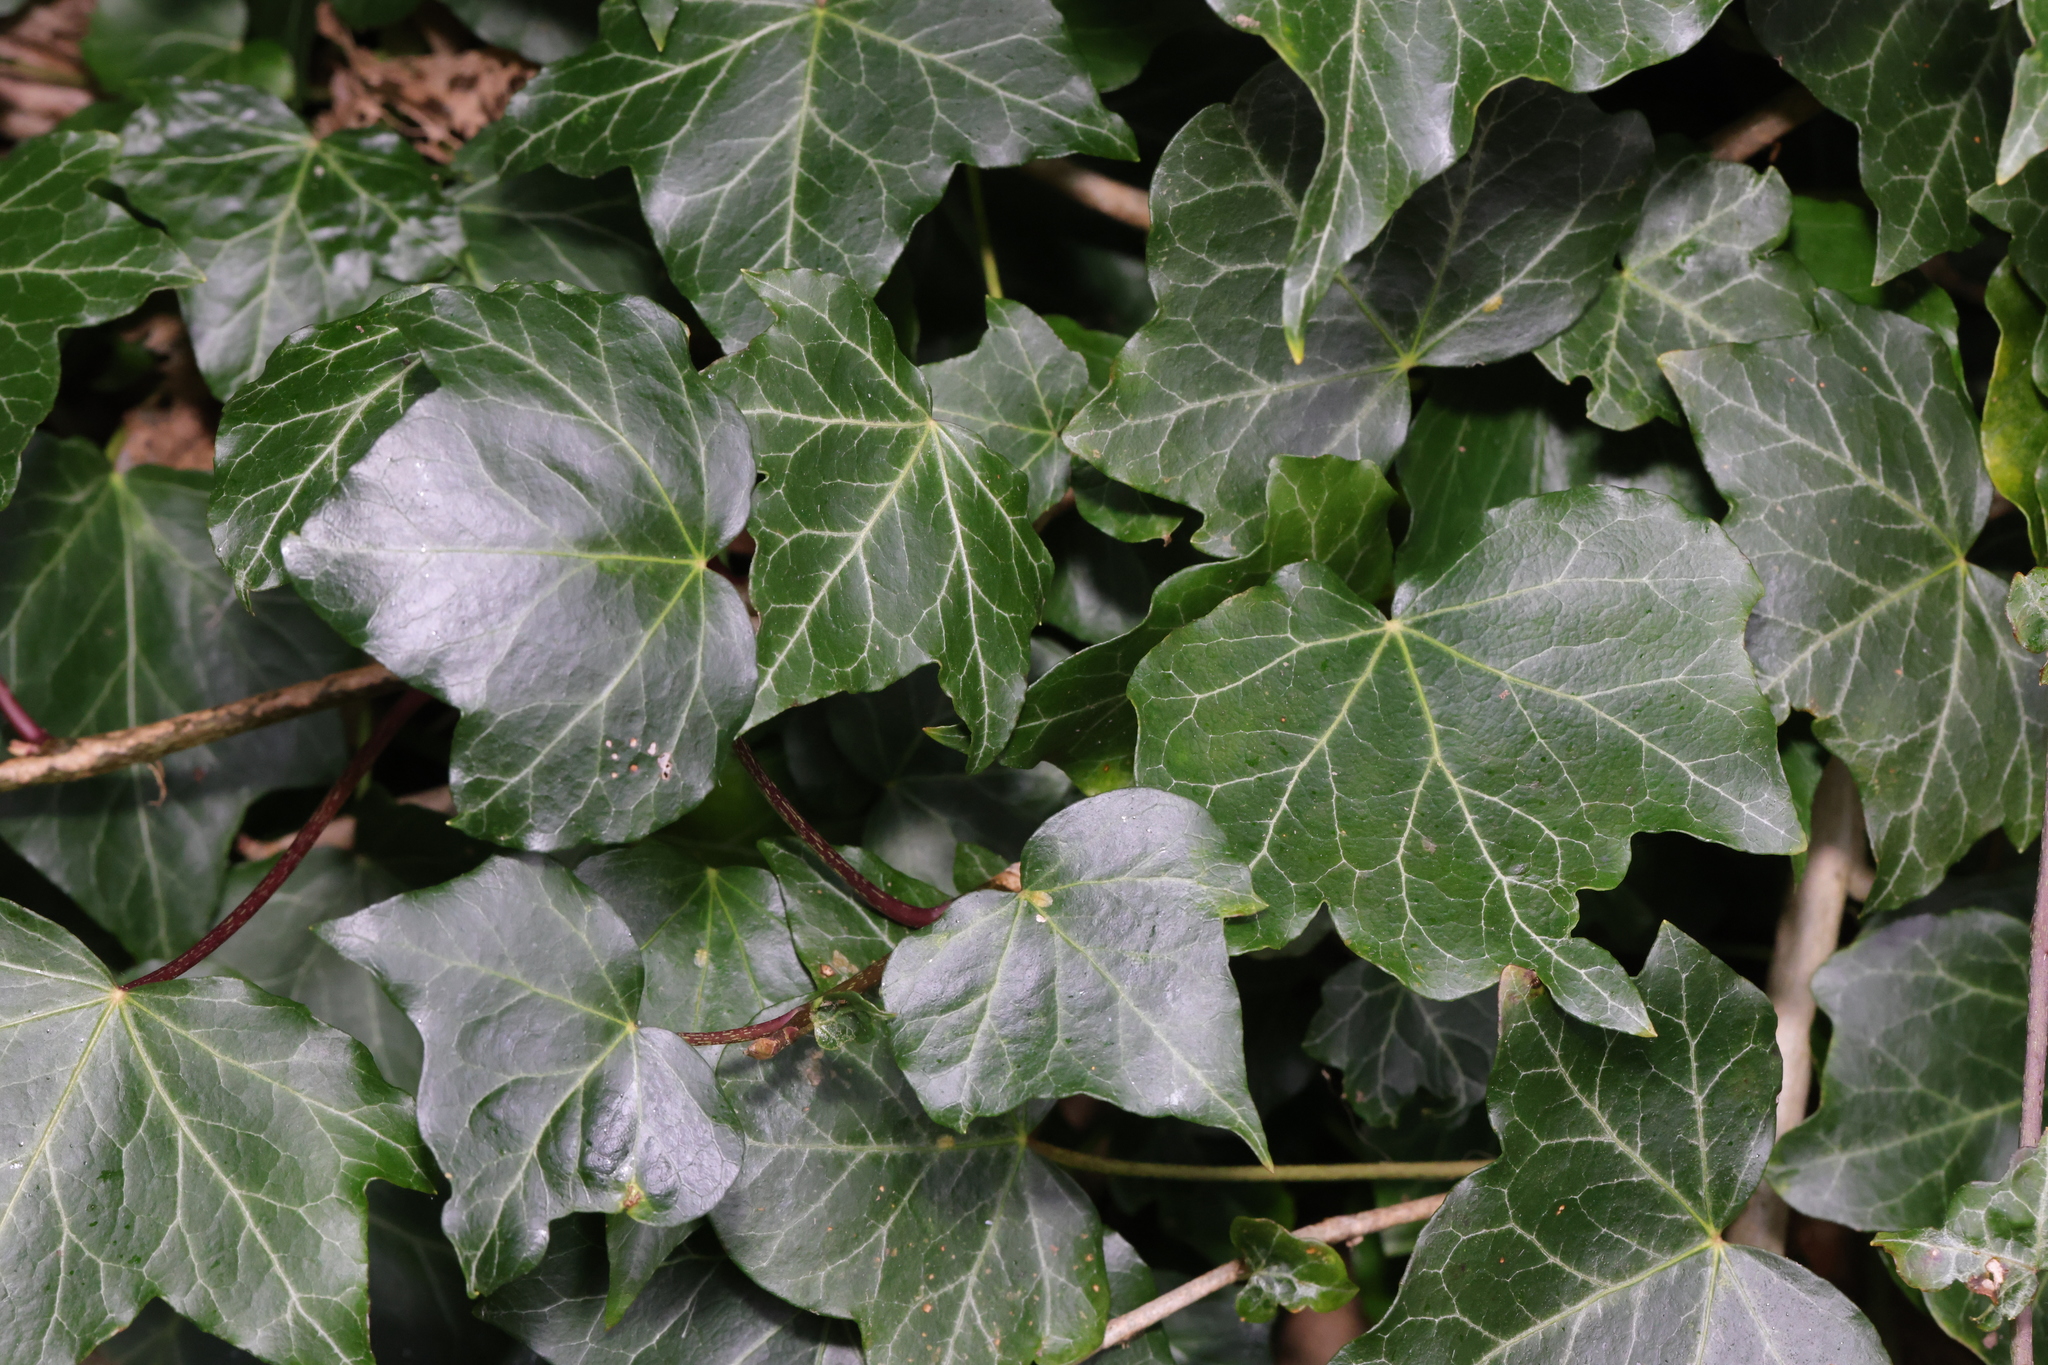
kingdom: Plantae
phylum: Tracheophyta
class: Magnoliopsida
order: Apiales
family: Araliaceae
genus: Hedera
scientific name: Hedera helix
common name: Ivy
